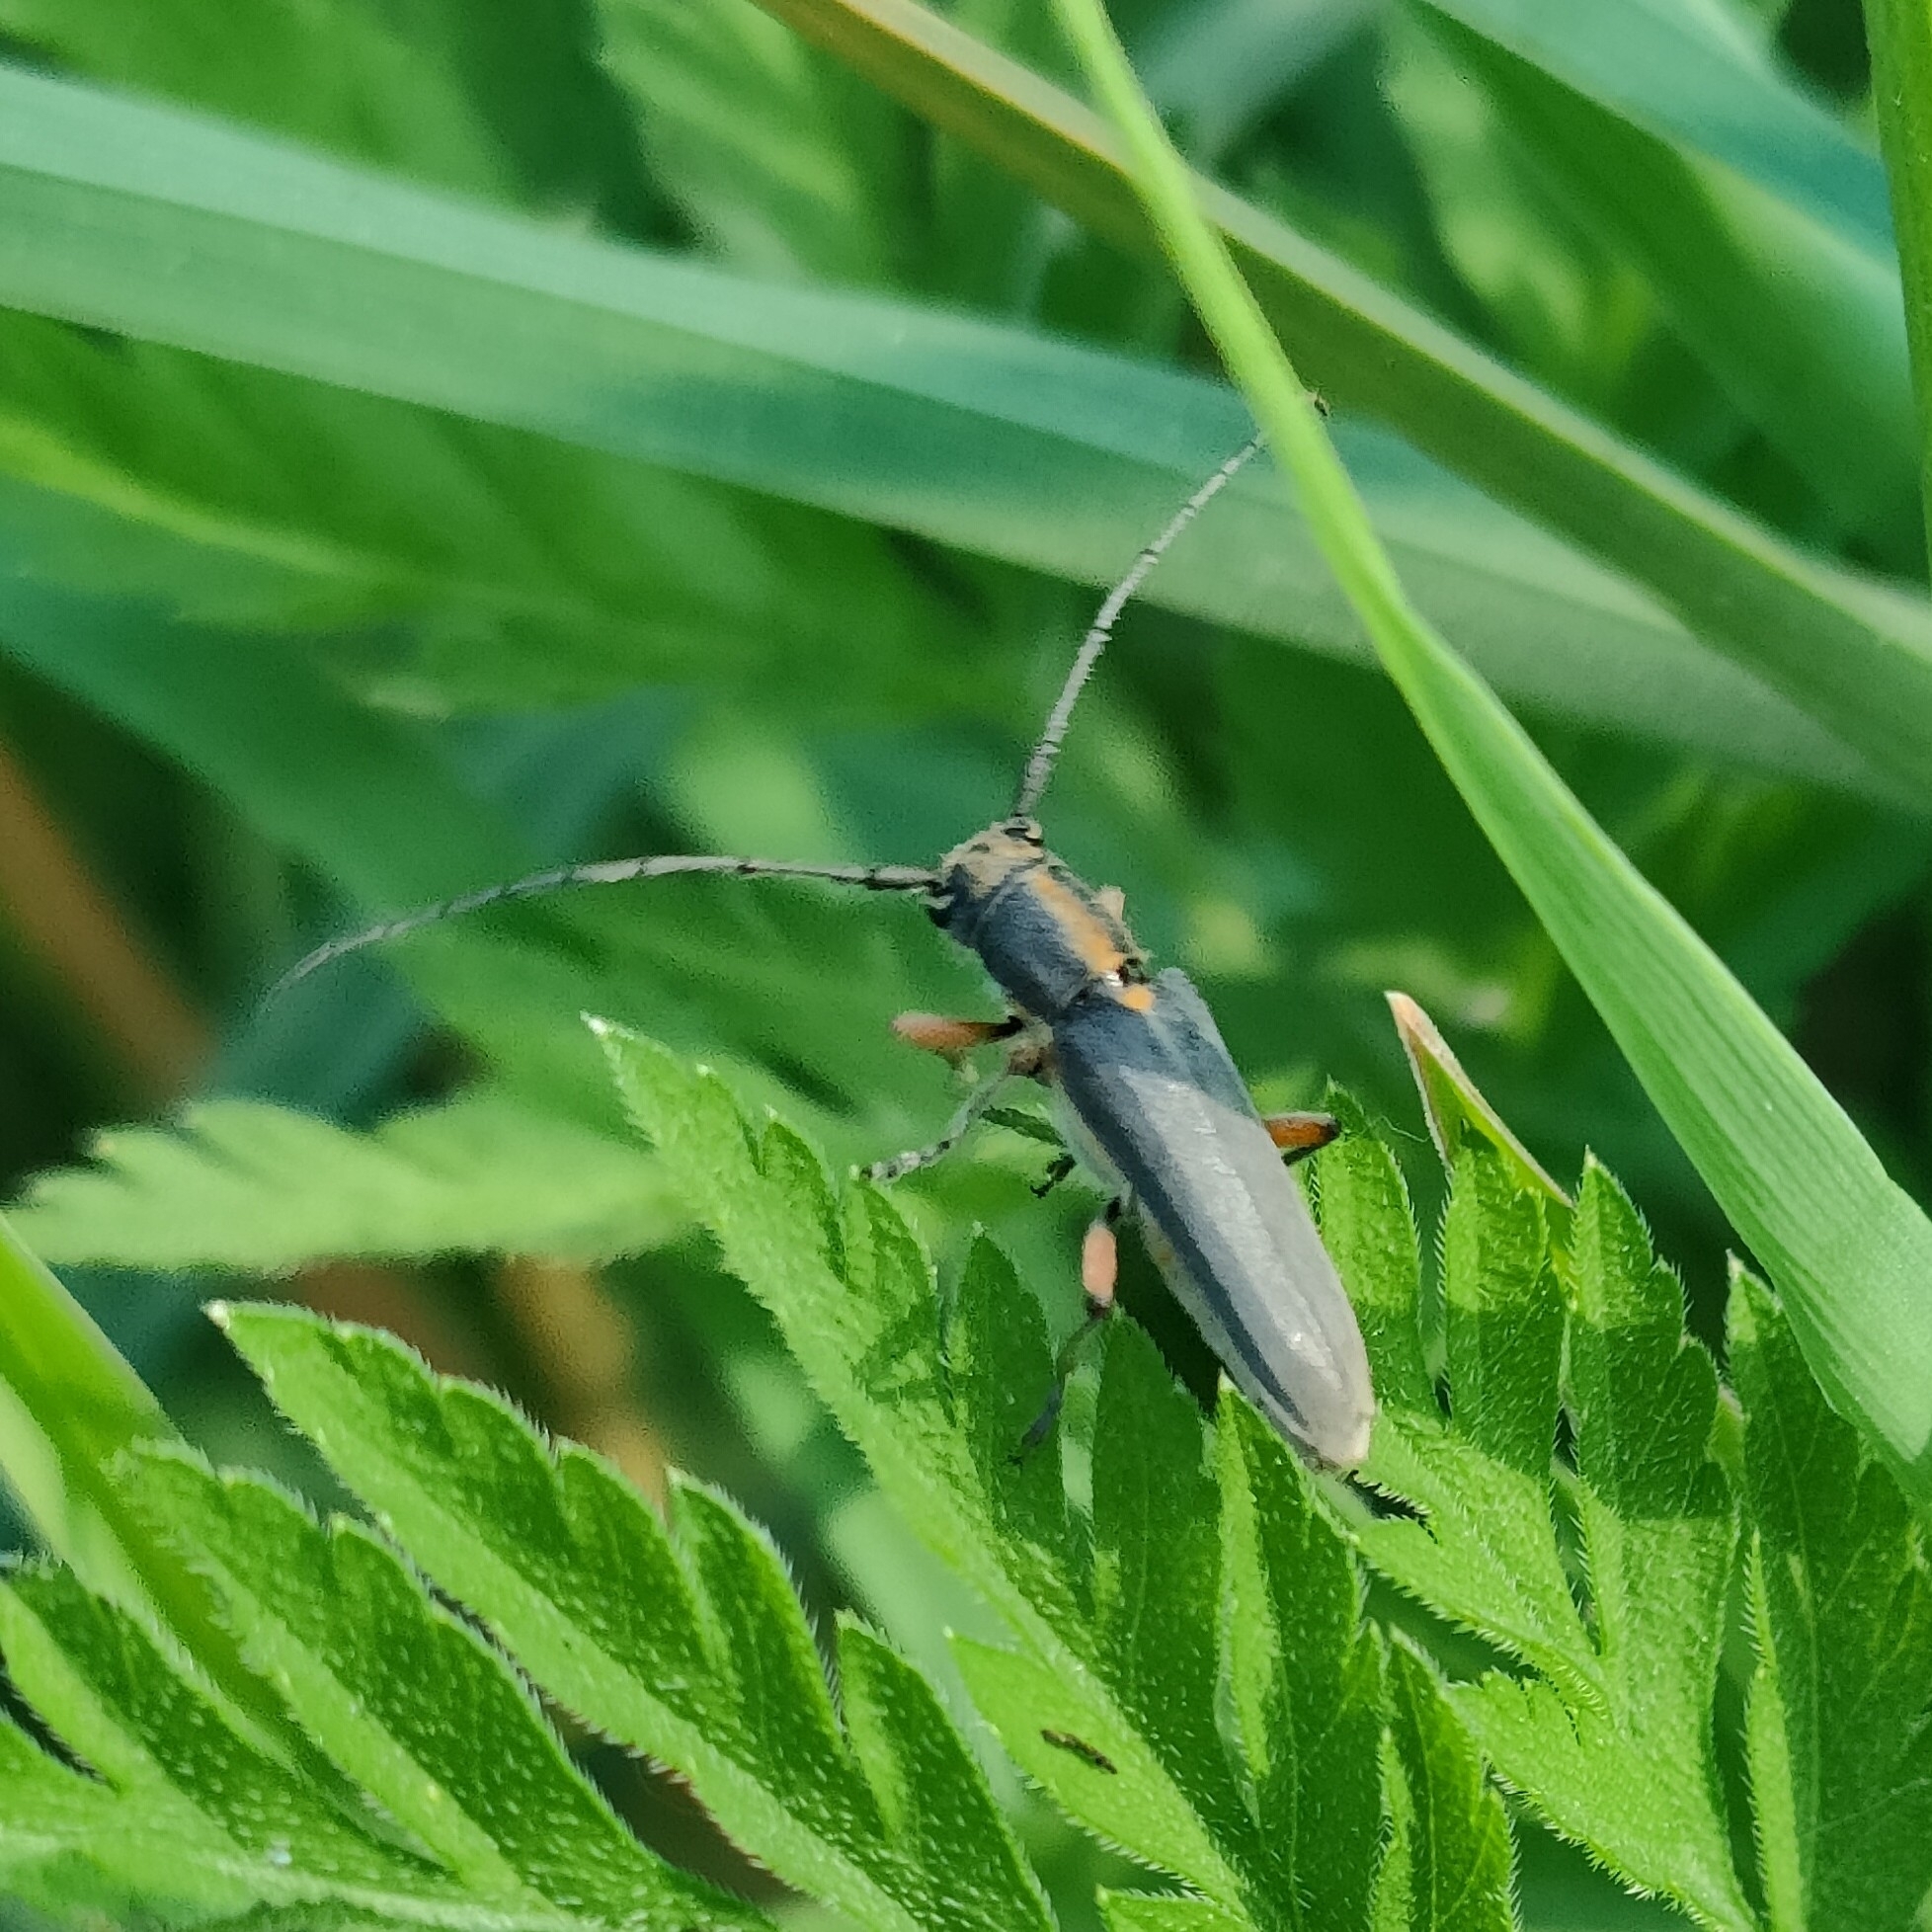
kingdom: Animalia
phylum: Arthropoda
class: Insecta
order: Coleoptera
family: Cerambycidae
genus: Phytoecia
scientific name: Phytoecia icterica
